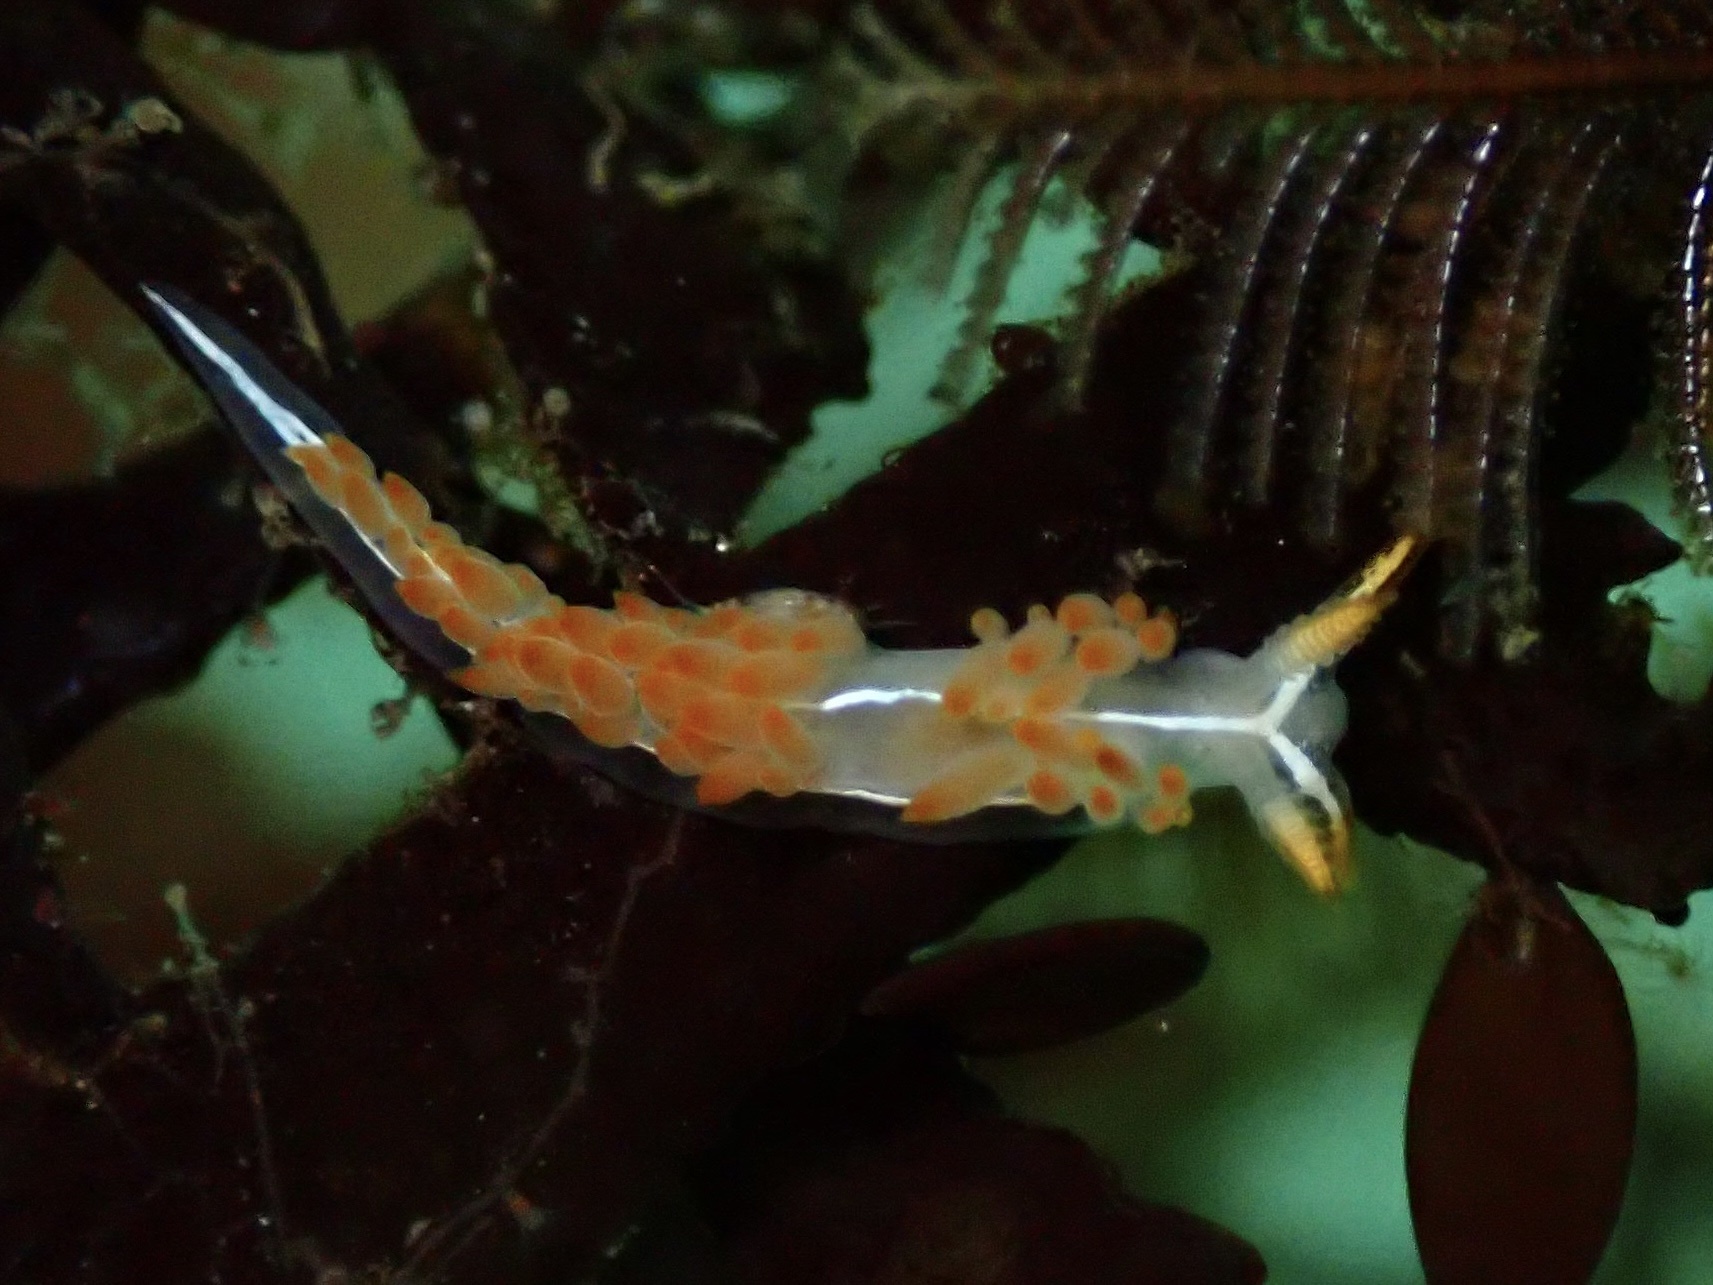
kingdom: Animalia
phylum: Mollusca
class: Gastropoda
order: Nudibranchia
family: Coryphellidae
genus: Coryphella
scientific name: Coryphella trilineata
